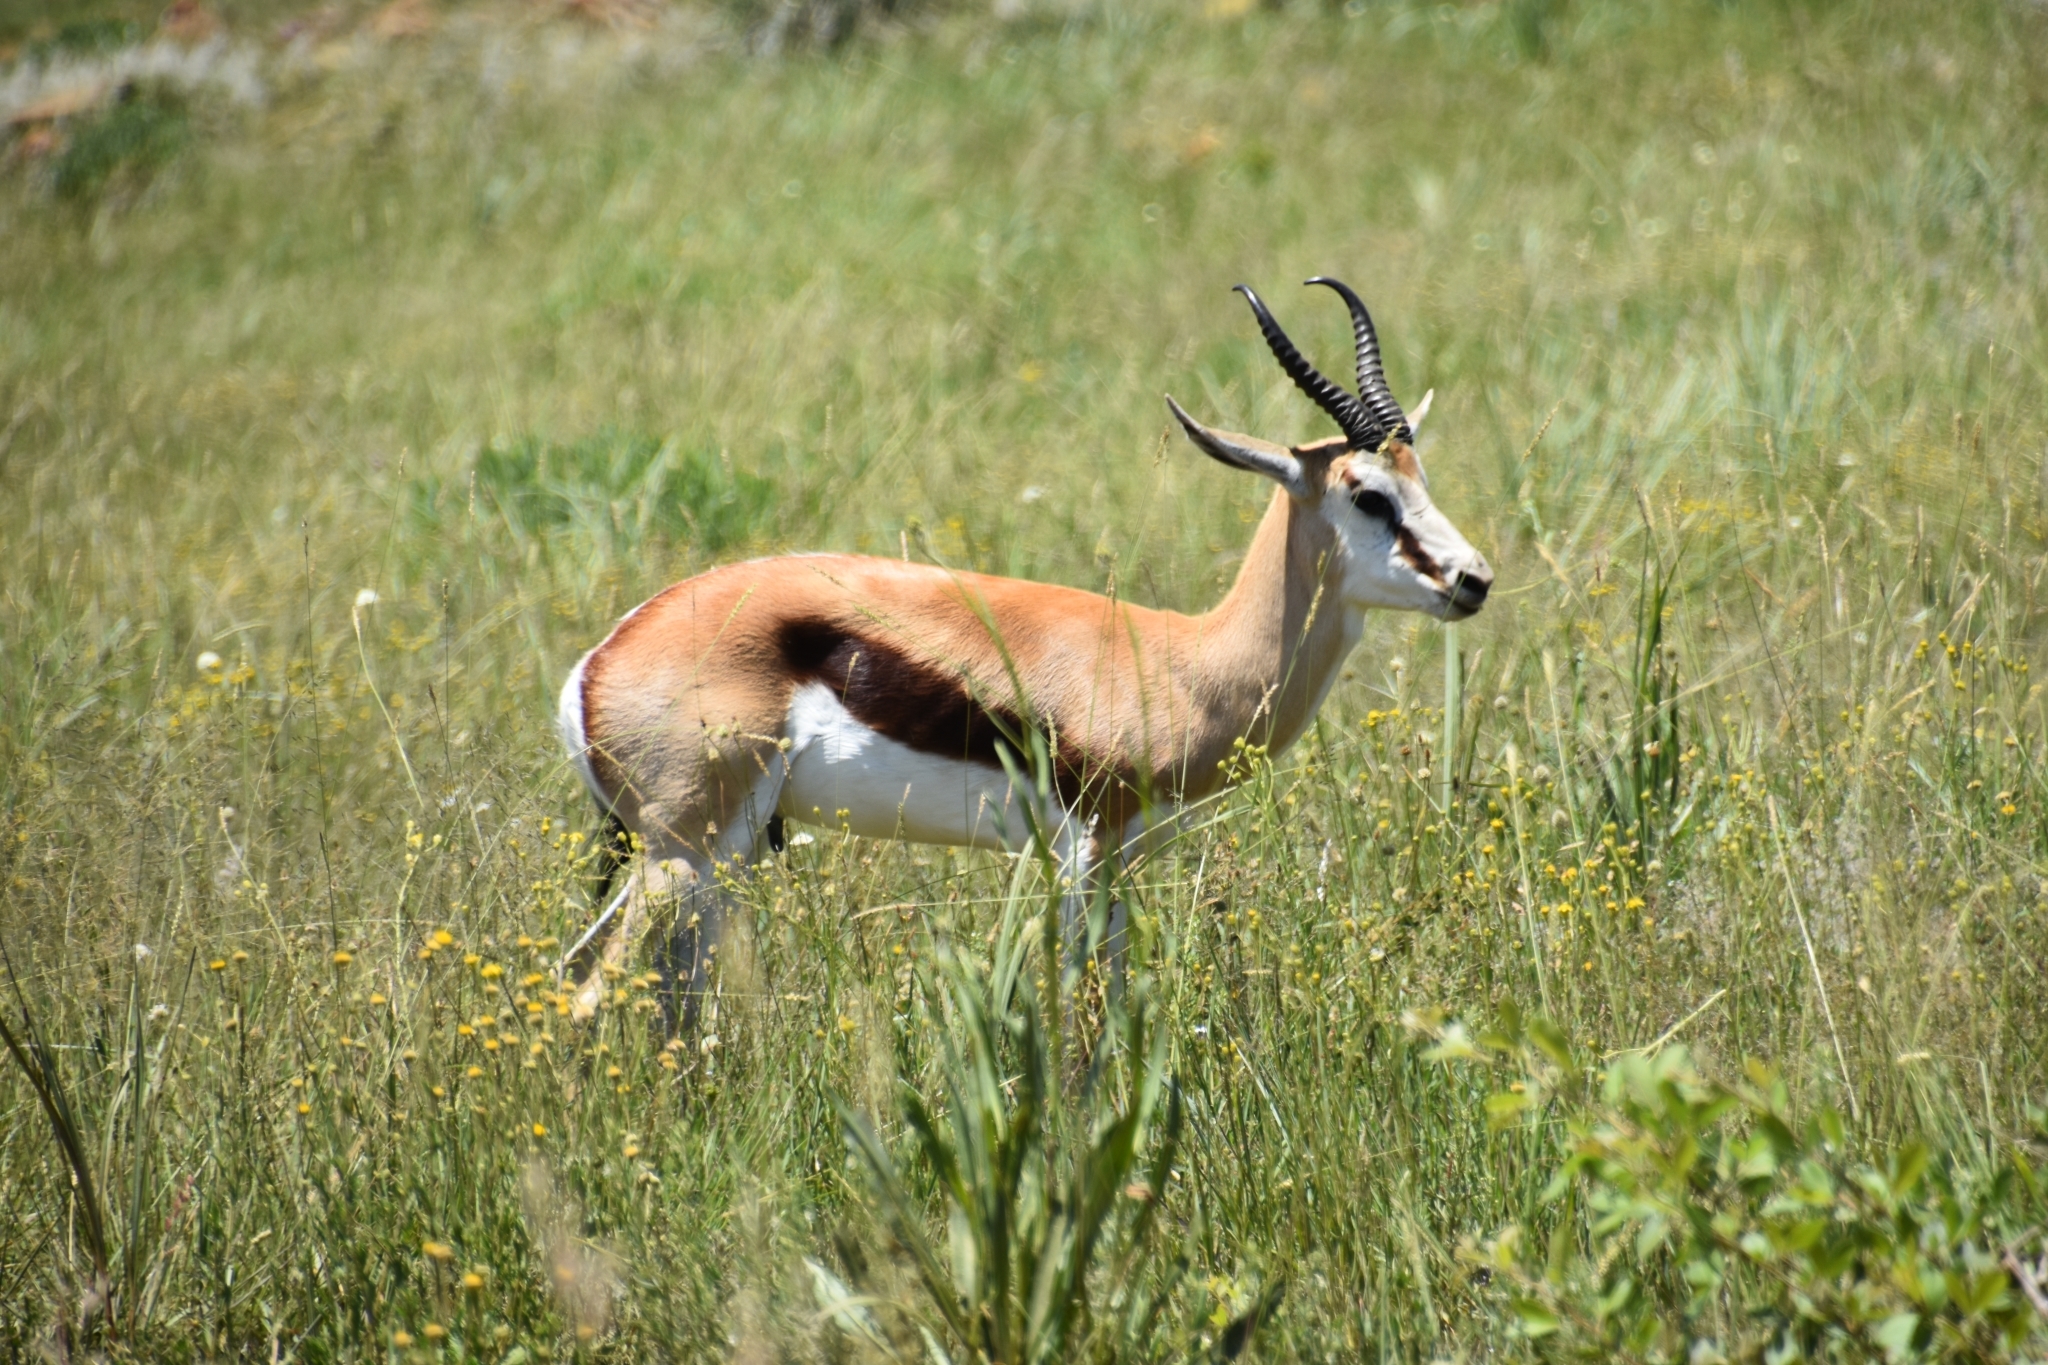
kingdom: Animalia
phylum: Chordata
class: Mammalia
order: Artiodactyla
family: Bovidae
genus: Antidorcas
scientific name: Antidorcas marsupialis
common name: Springbok
